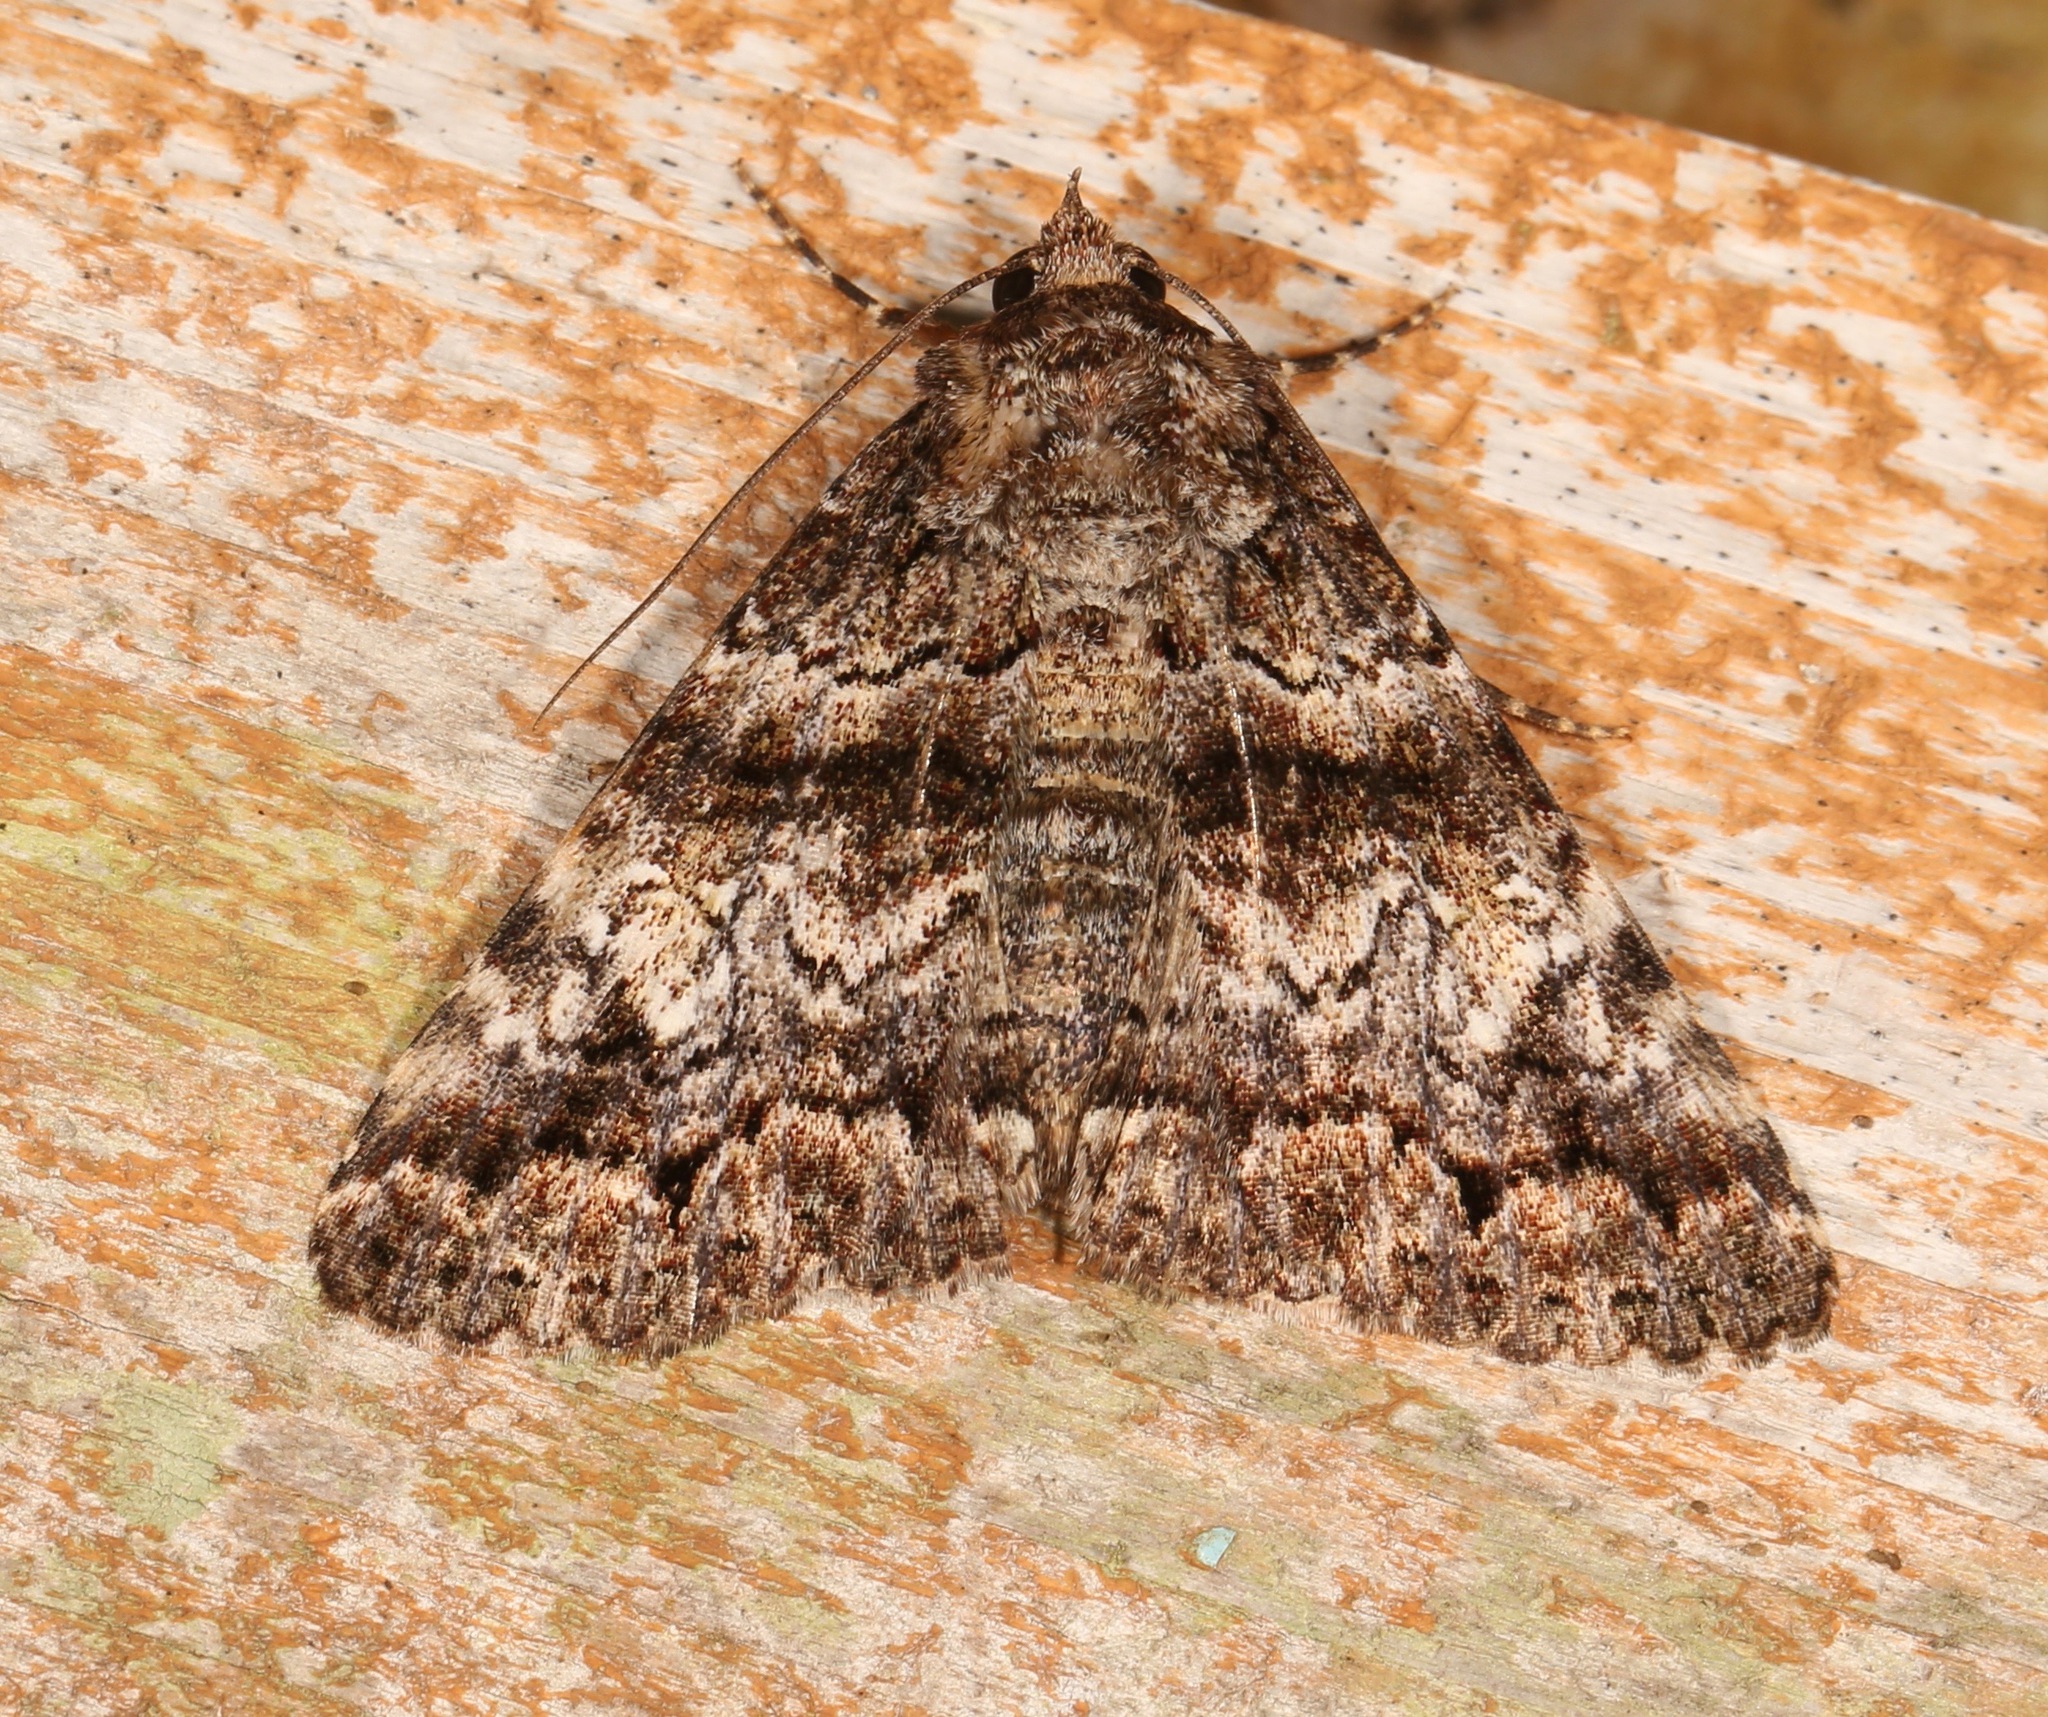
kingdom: Animalia
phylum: Arthropoda
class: Insecta
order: Lepidoptera
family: Erebidae
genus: Metria
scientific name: Metria amella
